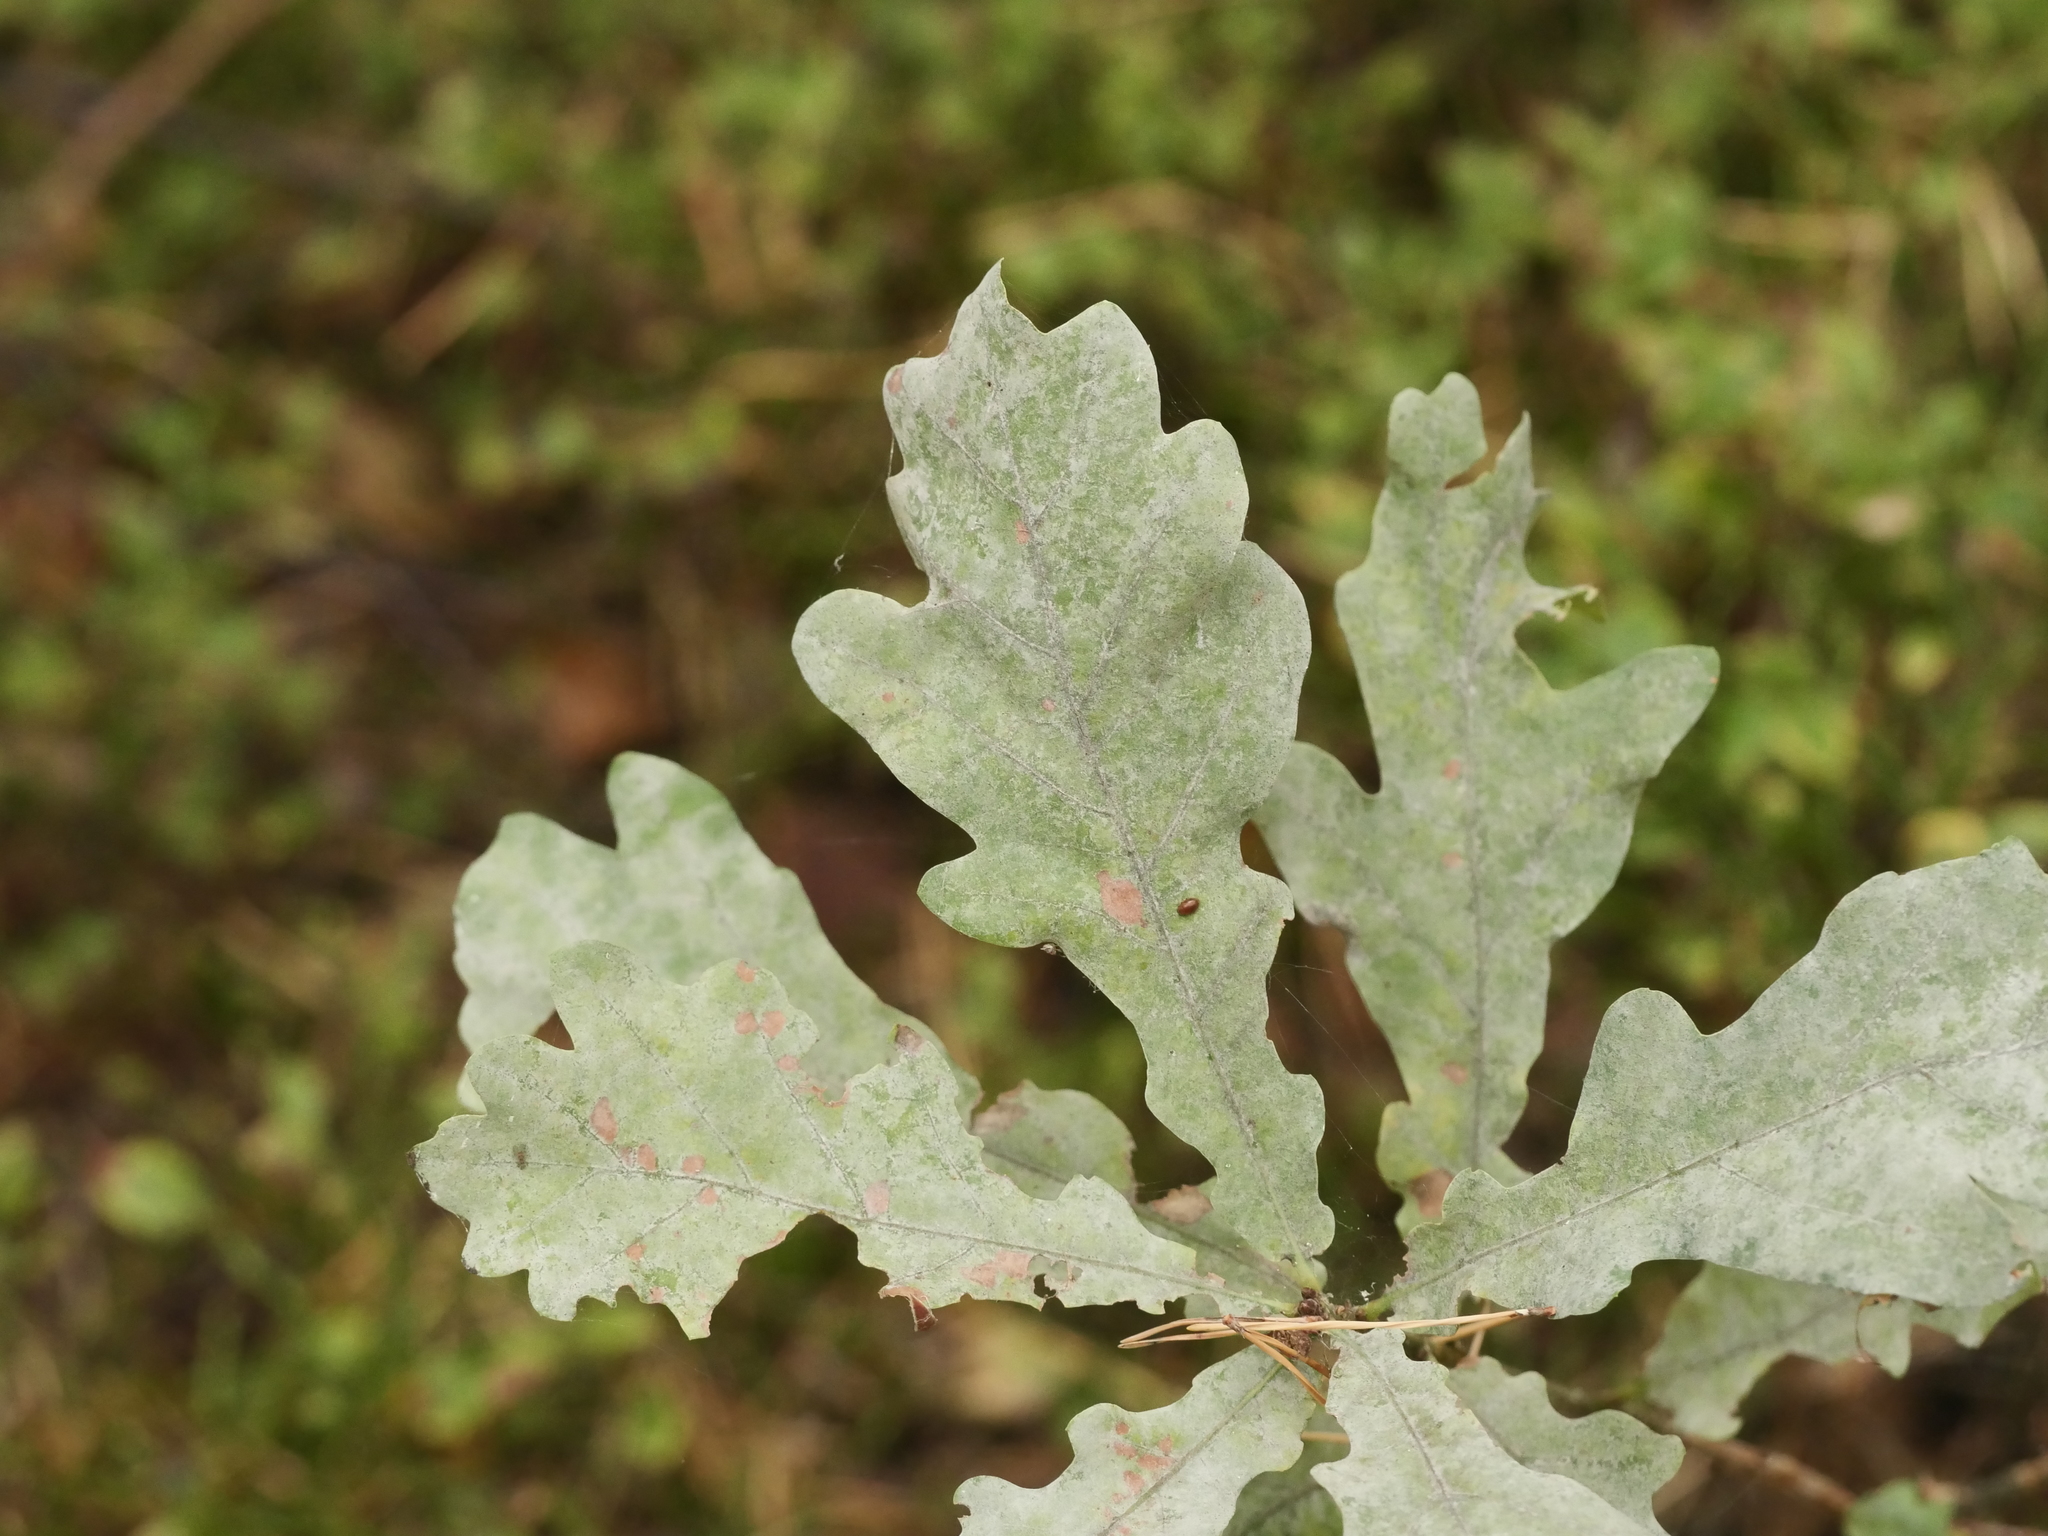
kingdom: Plantae
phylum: Tracheophyta
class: Magnoliopsida
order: Fagales
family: Fagaceae
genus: Quercus
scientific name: Quercus robur
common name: Pedunculate oak
